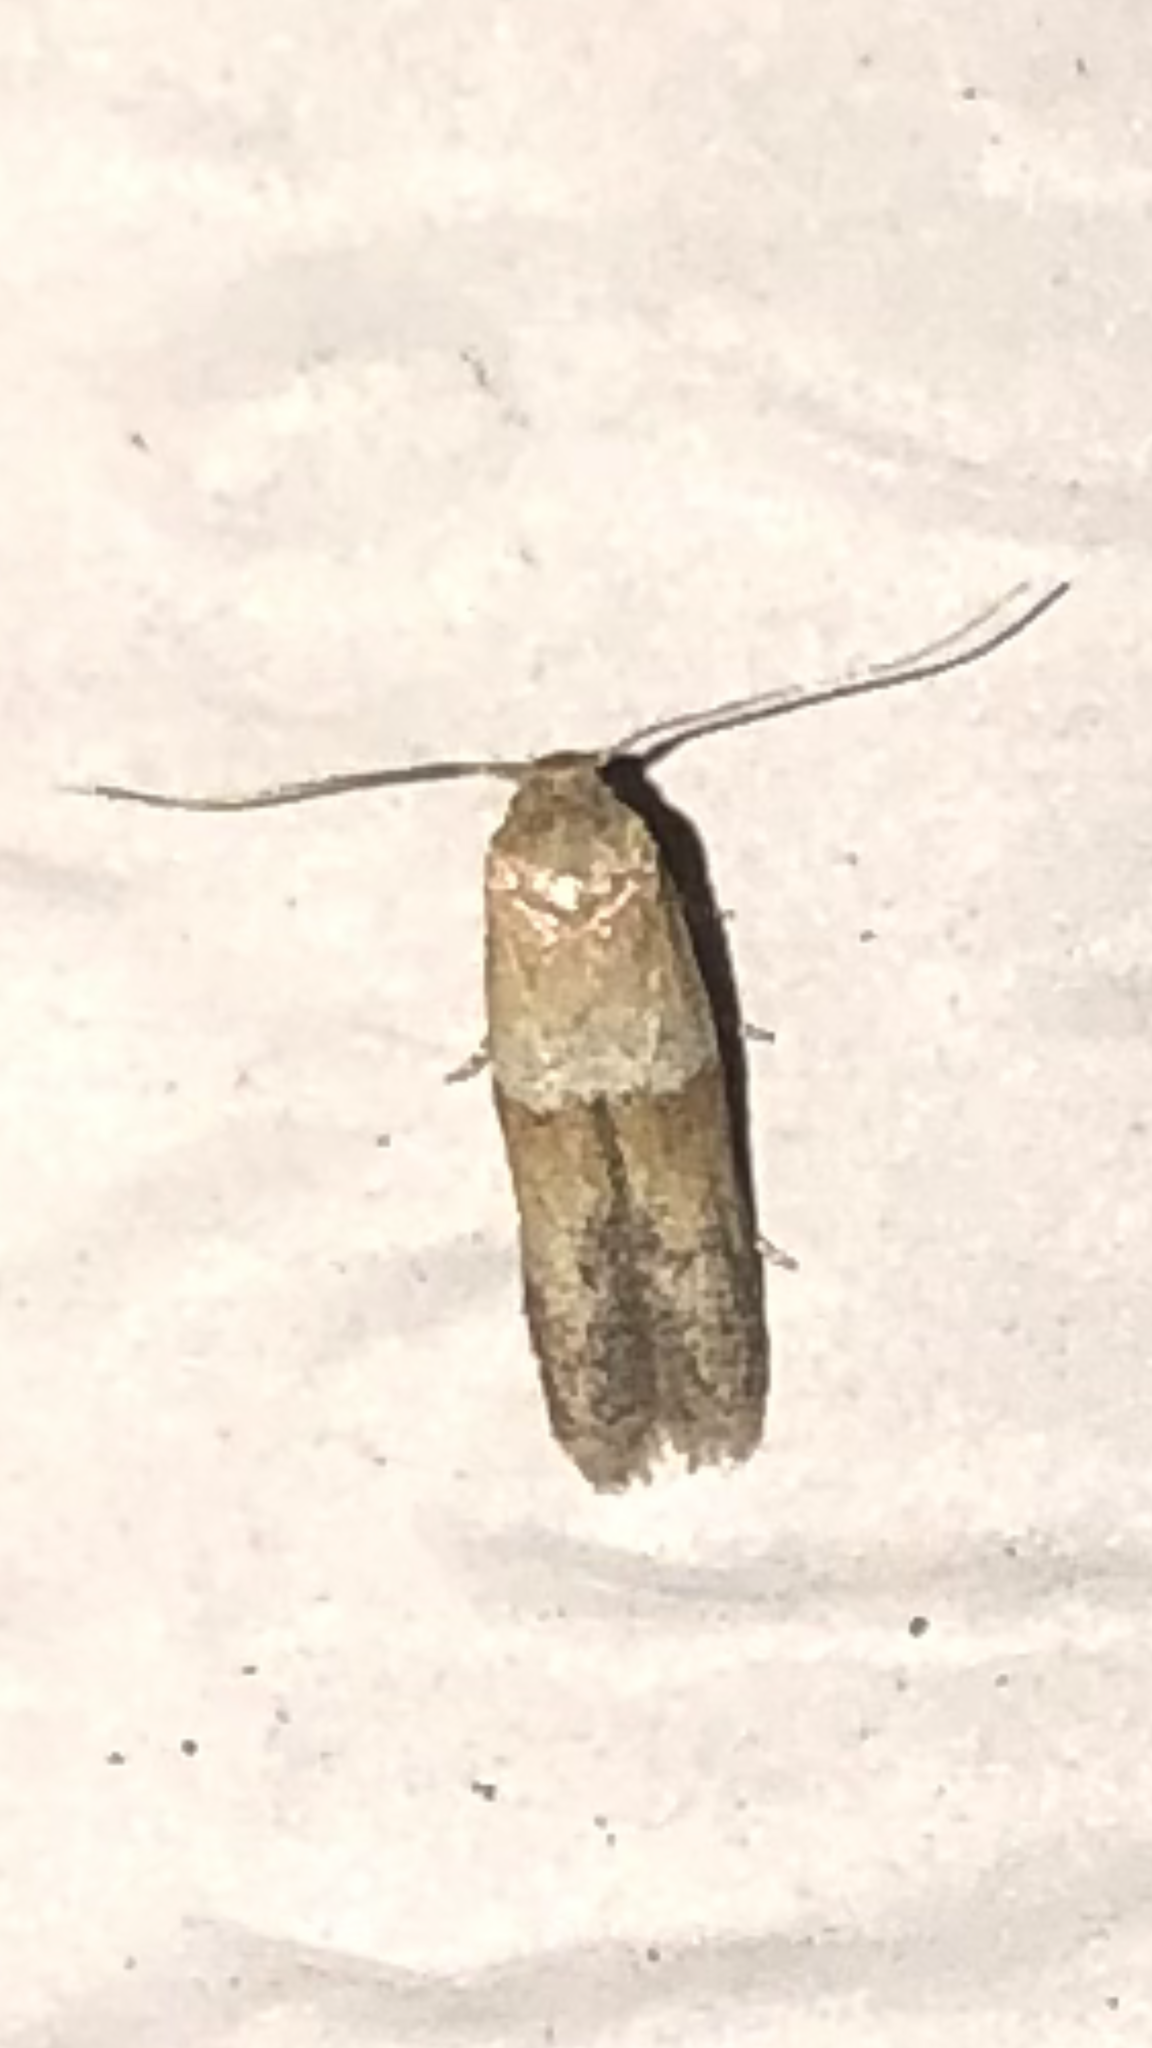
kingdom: Animalia
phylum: Arthropoda
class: Insecta
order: Lepidoptera
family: Blastobasidae
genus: Blastobasis
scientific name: Blastobasis pulchella
